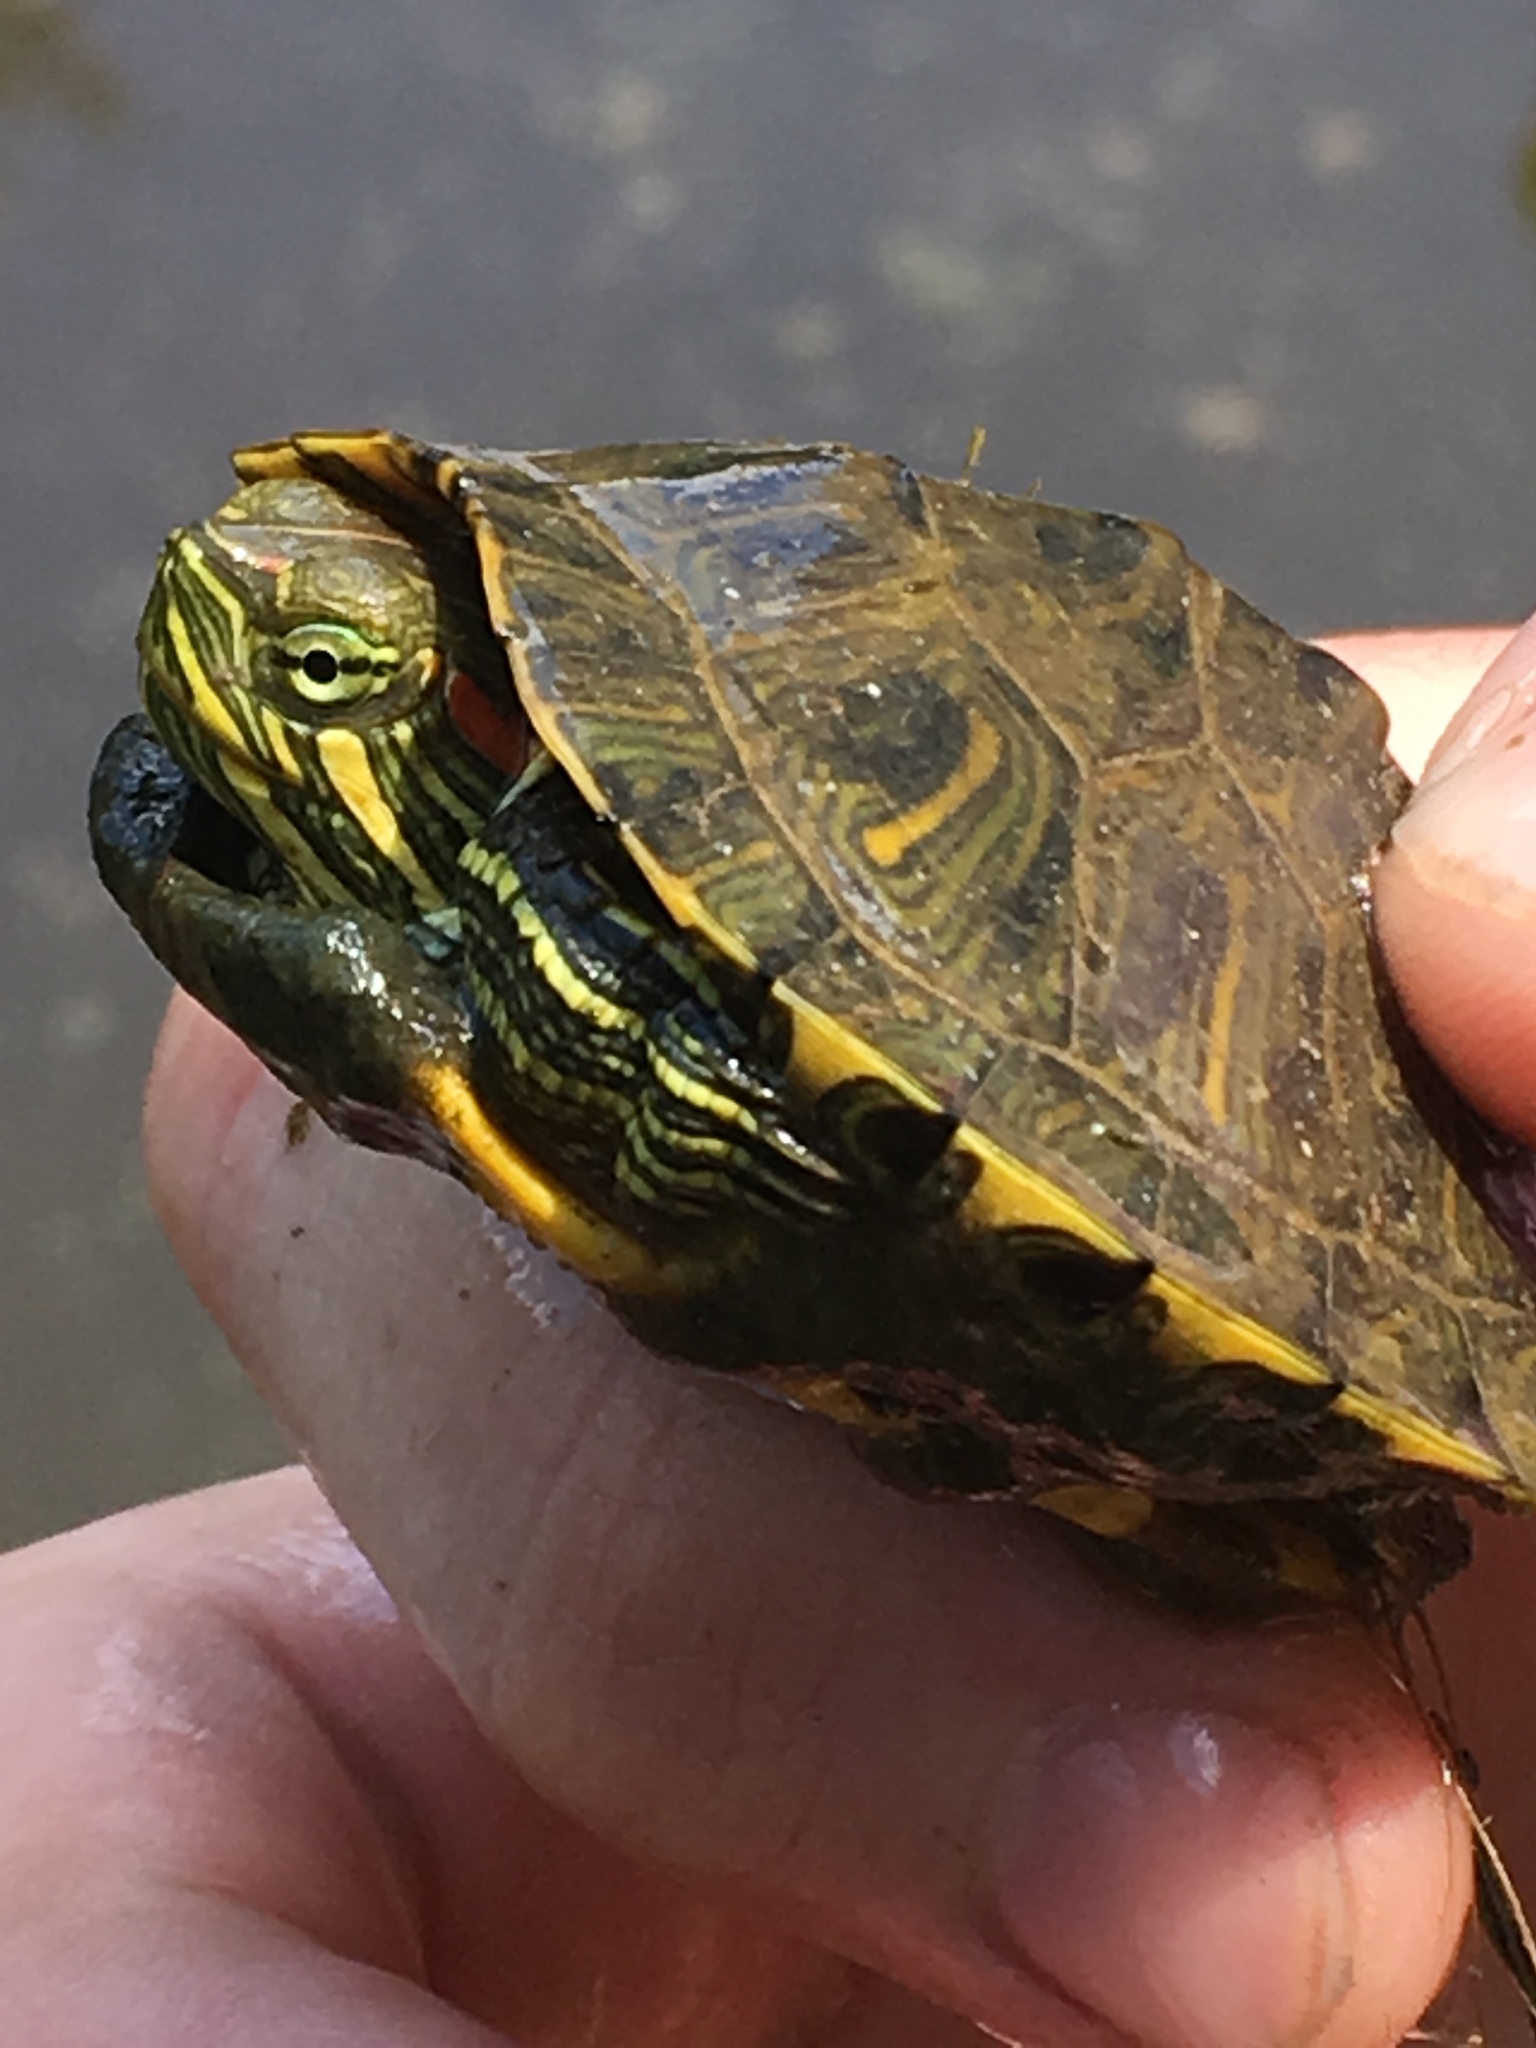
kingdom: Animalia
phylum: Chordata
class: Testudines
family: Emydidae
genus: Trachemys
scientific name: Trachemys scripta
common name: Slider
